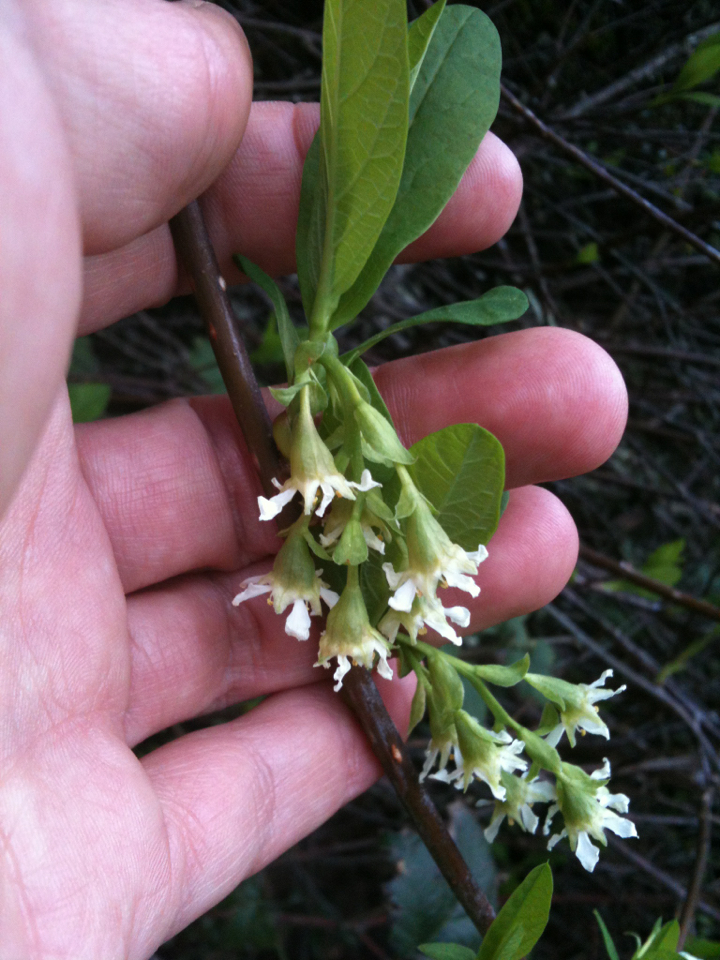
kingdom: Plantae
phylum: Tracheophyta
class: Magnoliopsida
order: Rosales
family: Rosaceae
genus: Oemleria
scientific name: Oemleria cerasiformis
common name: Osoberry
